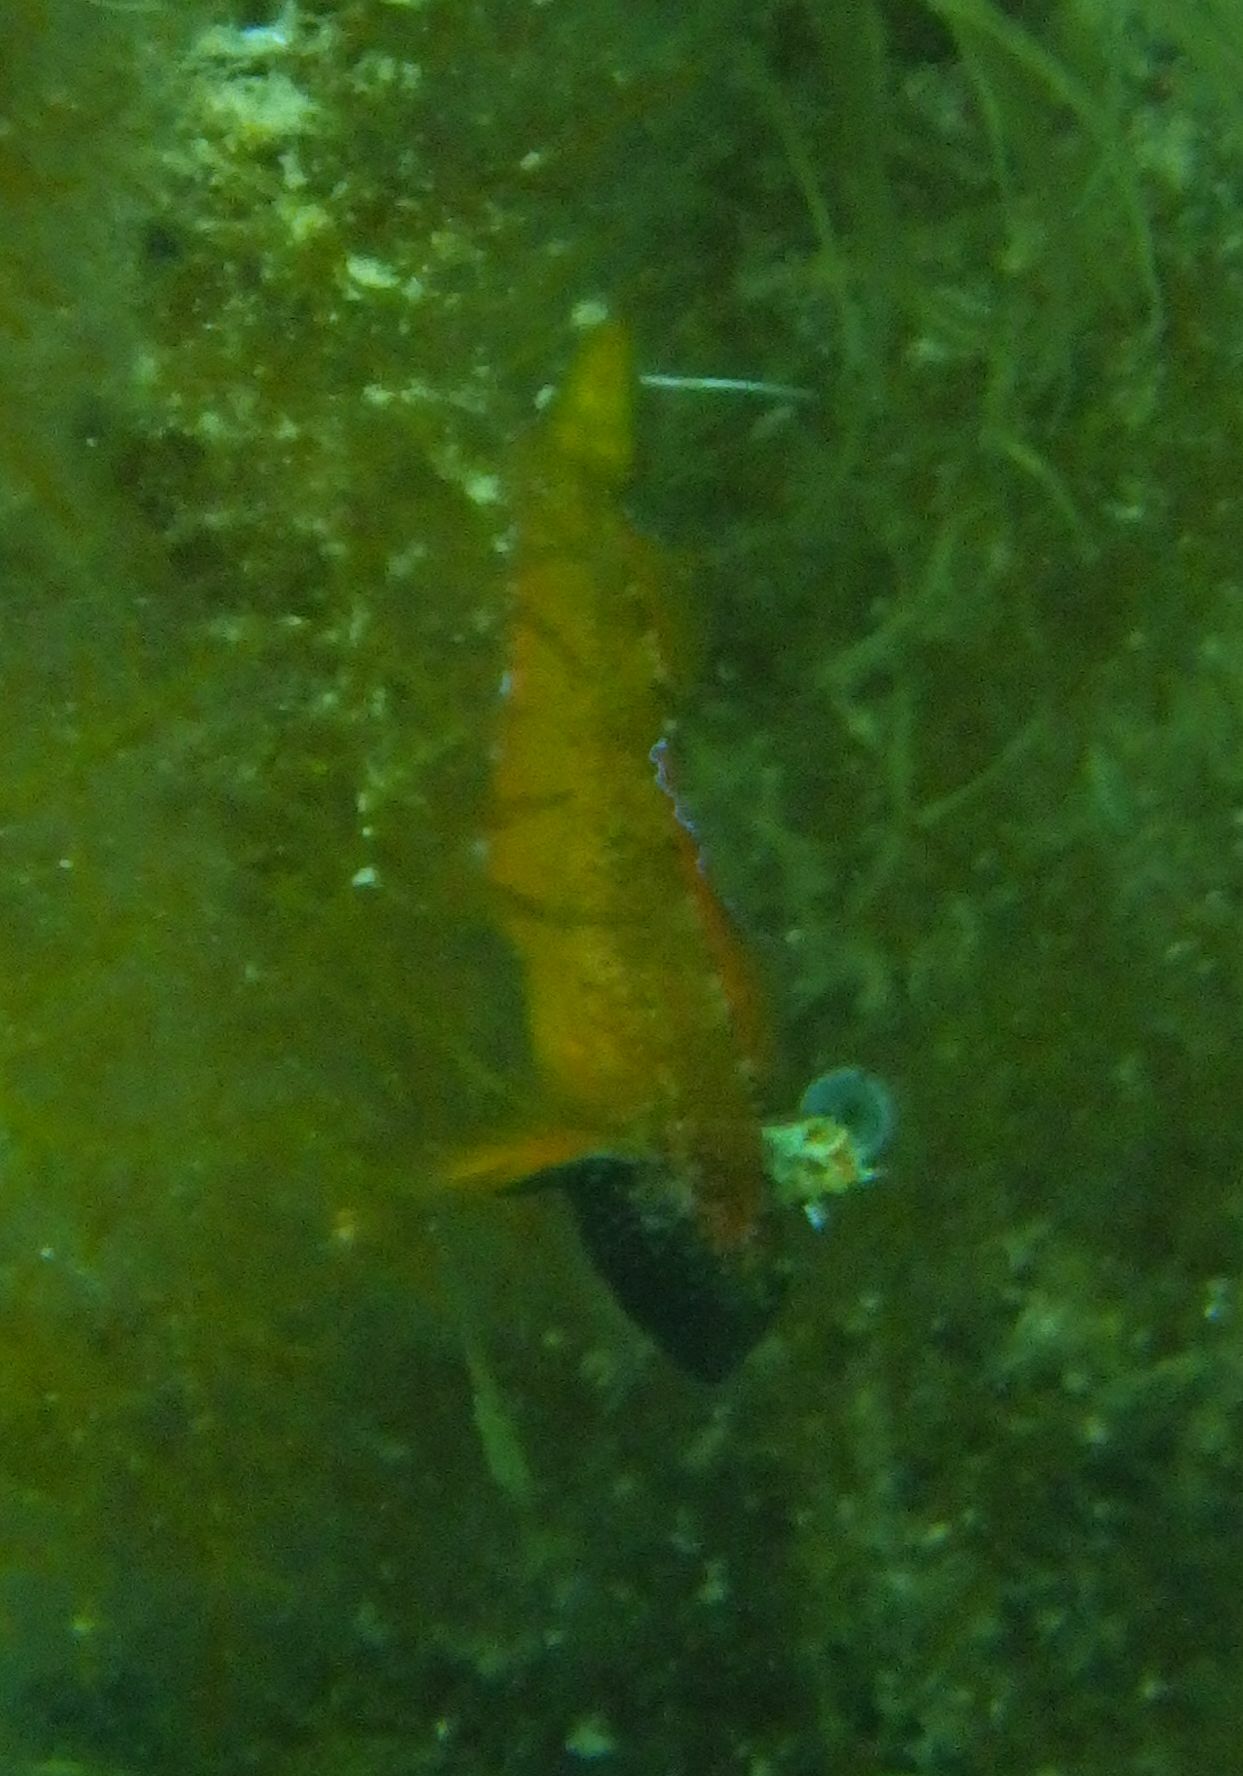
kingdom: Animalia
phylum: Chordata
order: Perciformes
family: Tripterygiidae
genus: Tripterygion
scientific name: Tripterygion delaisi
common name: Black-face blenny
